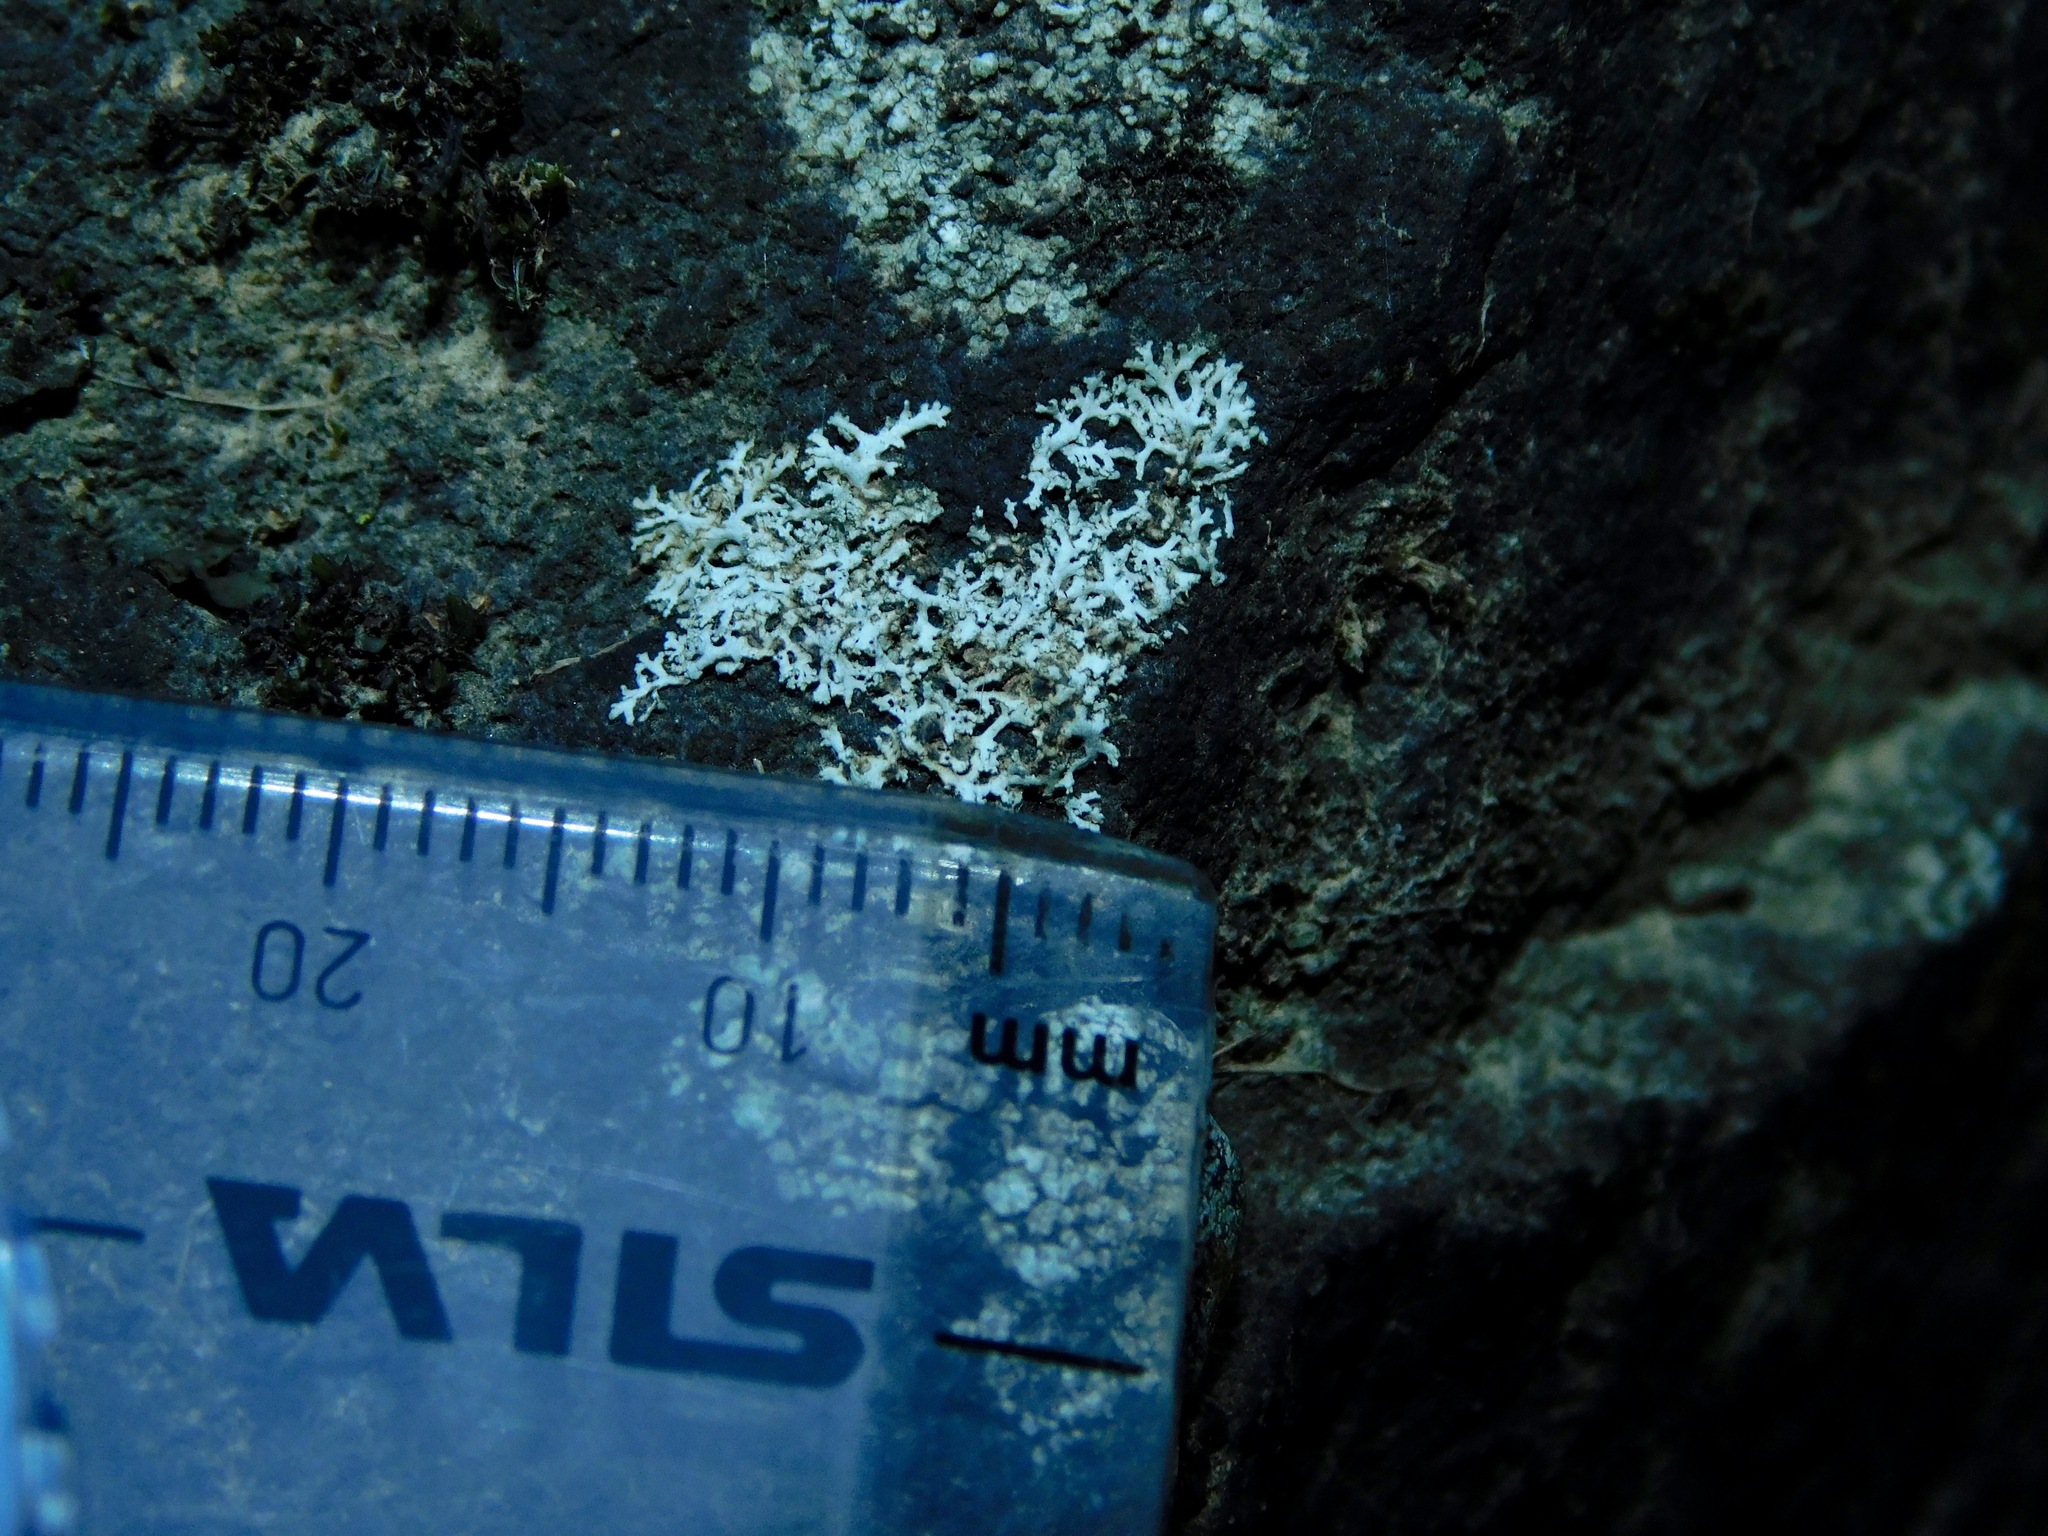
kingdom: Fungi
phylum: Ascomycota
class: Lecanoromycetes
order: Caliciales
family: Physciaceae
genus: Physcia
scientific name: Physcia subtilis
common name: Slender rosette lichen
